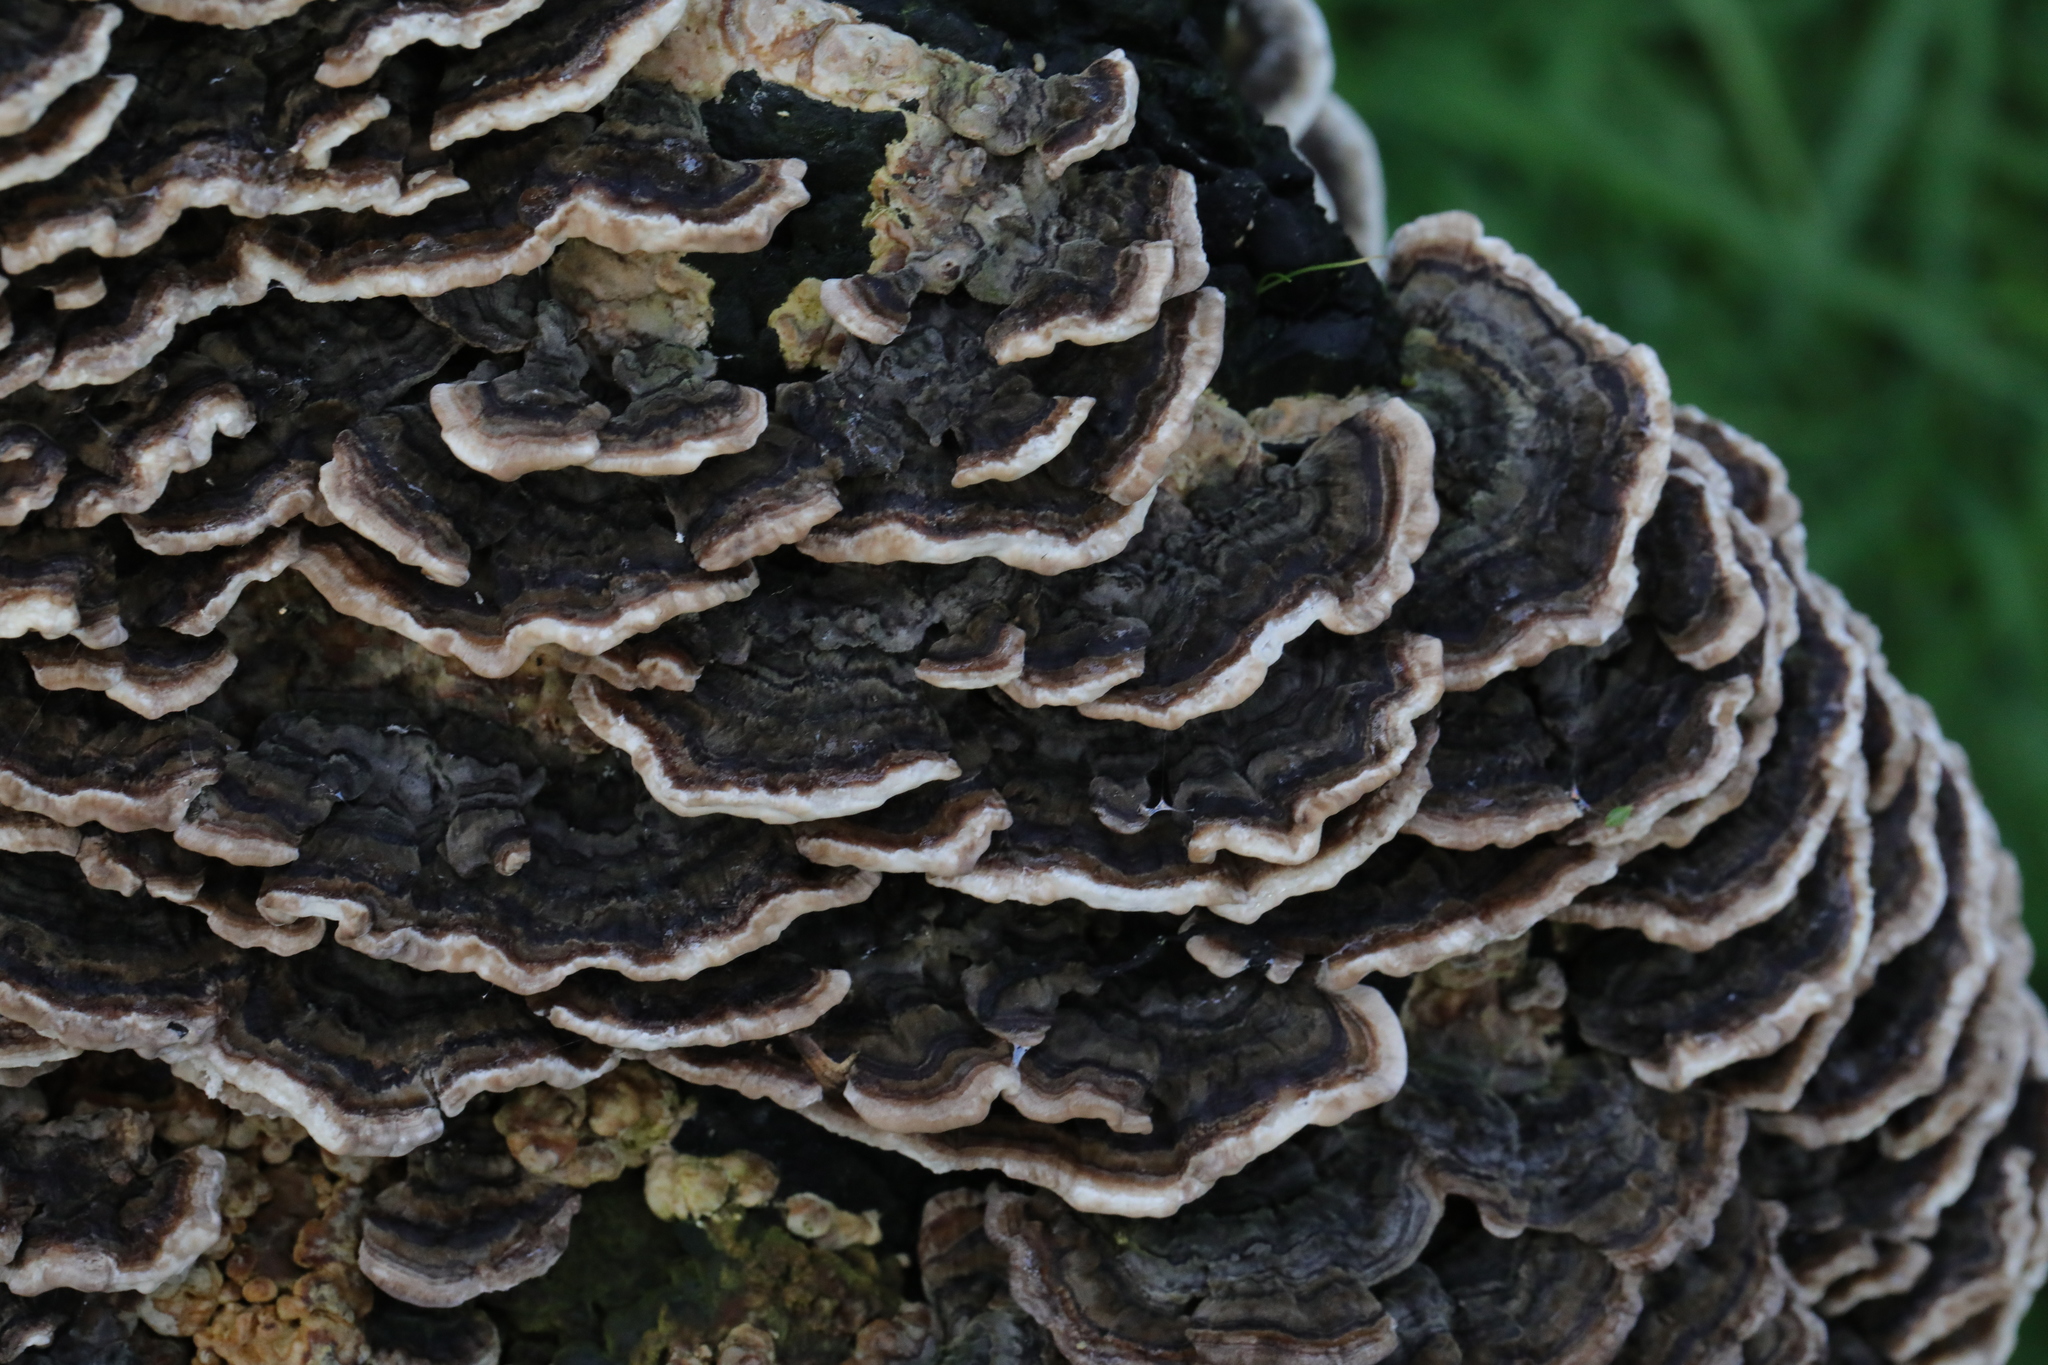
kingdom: Fungi
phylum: Basidiomycota
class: Agaricomycetes
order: Polyporales
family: Polyporaceae
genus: Trametes
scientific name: Trametes versicolor
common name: Turkeytail
